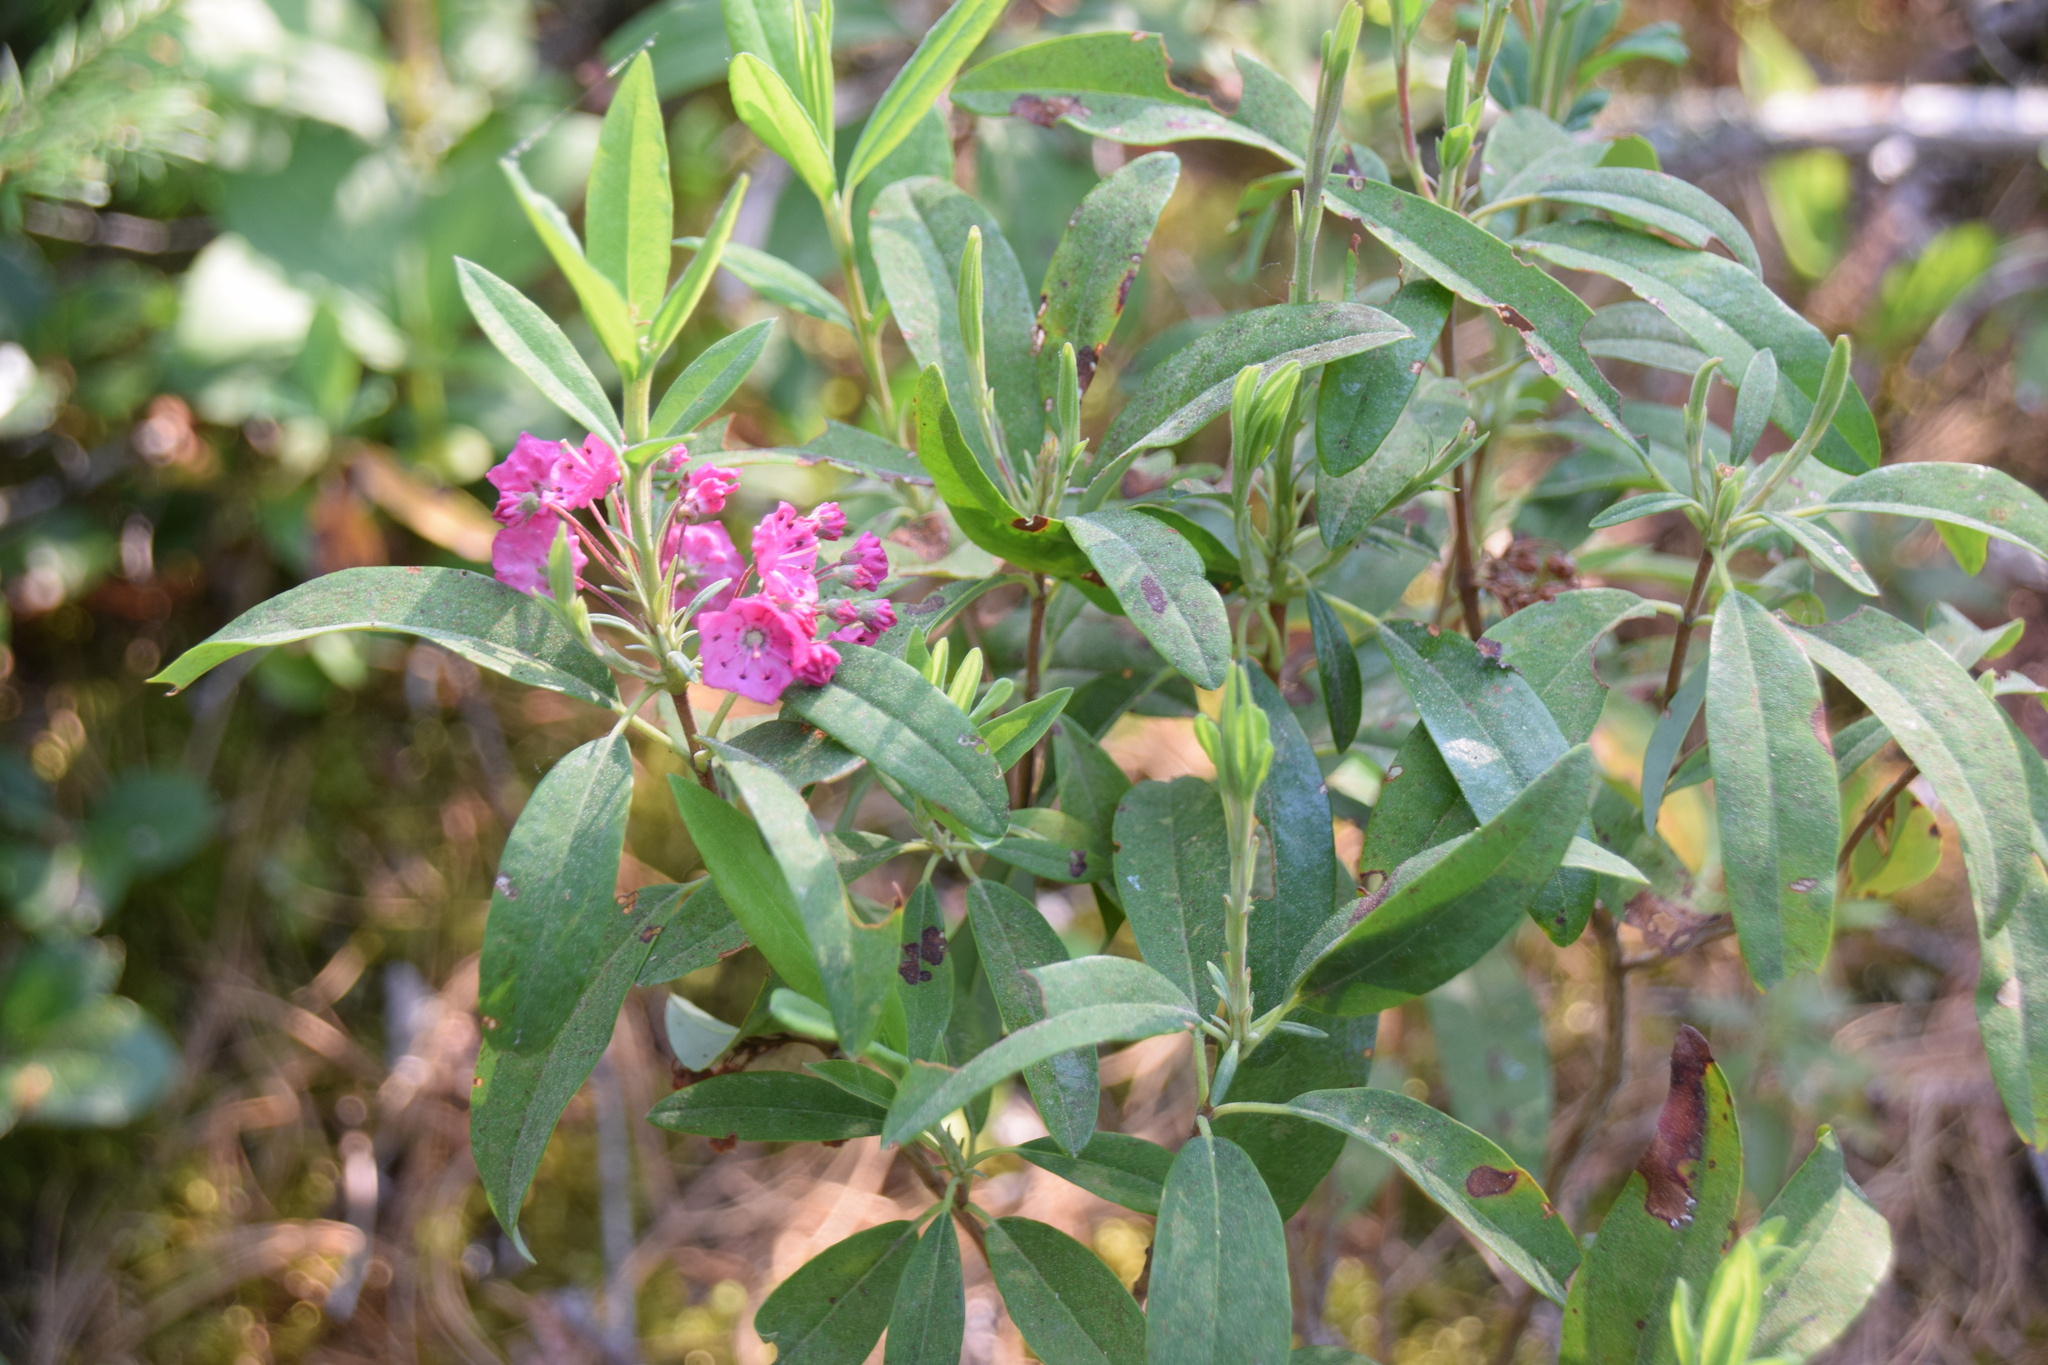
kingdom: Plantae
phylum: Tracheophyta
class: Magnoliopsida
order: Ericales
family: Ericaceae
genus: Kalmia
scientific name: Kalmia angustifolia
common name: Sheep-laurel
